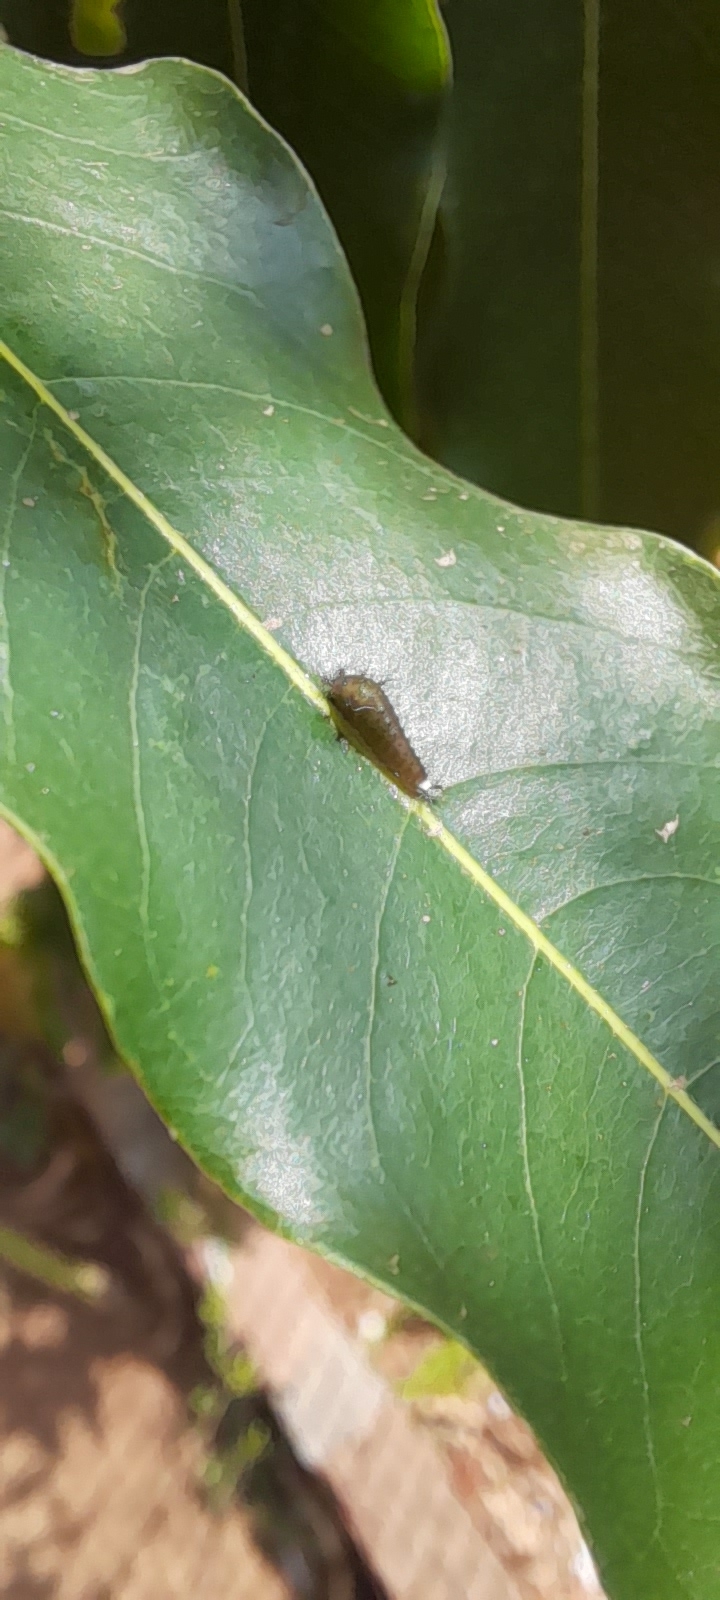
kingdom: Animalia
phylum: Arthropoda
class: Insecta
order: Lepidoptera
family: Papilionidae
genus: Graphium
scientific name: Graphium doson
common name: Common jay
